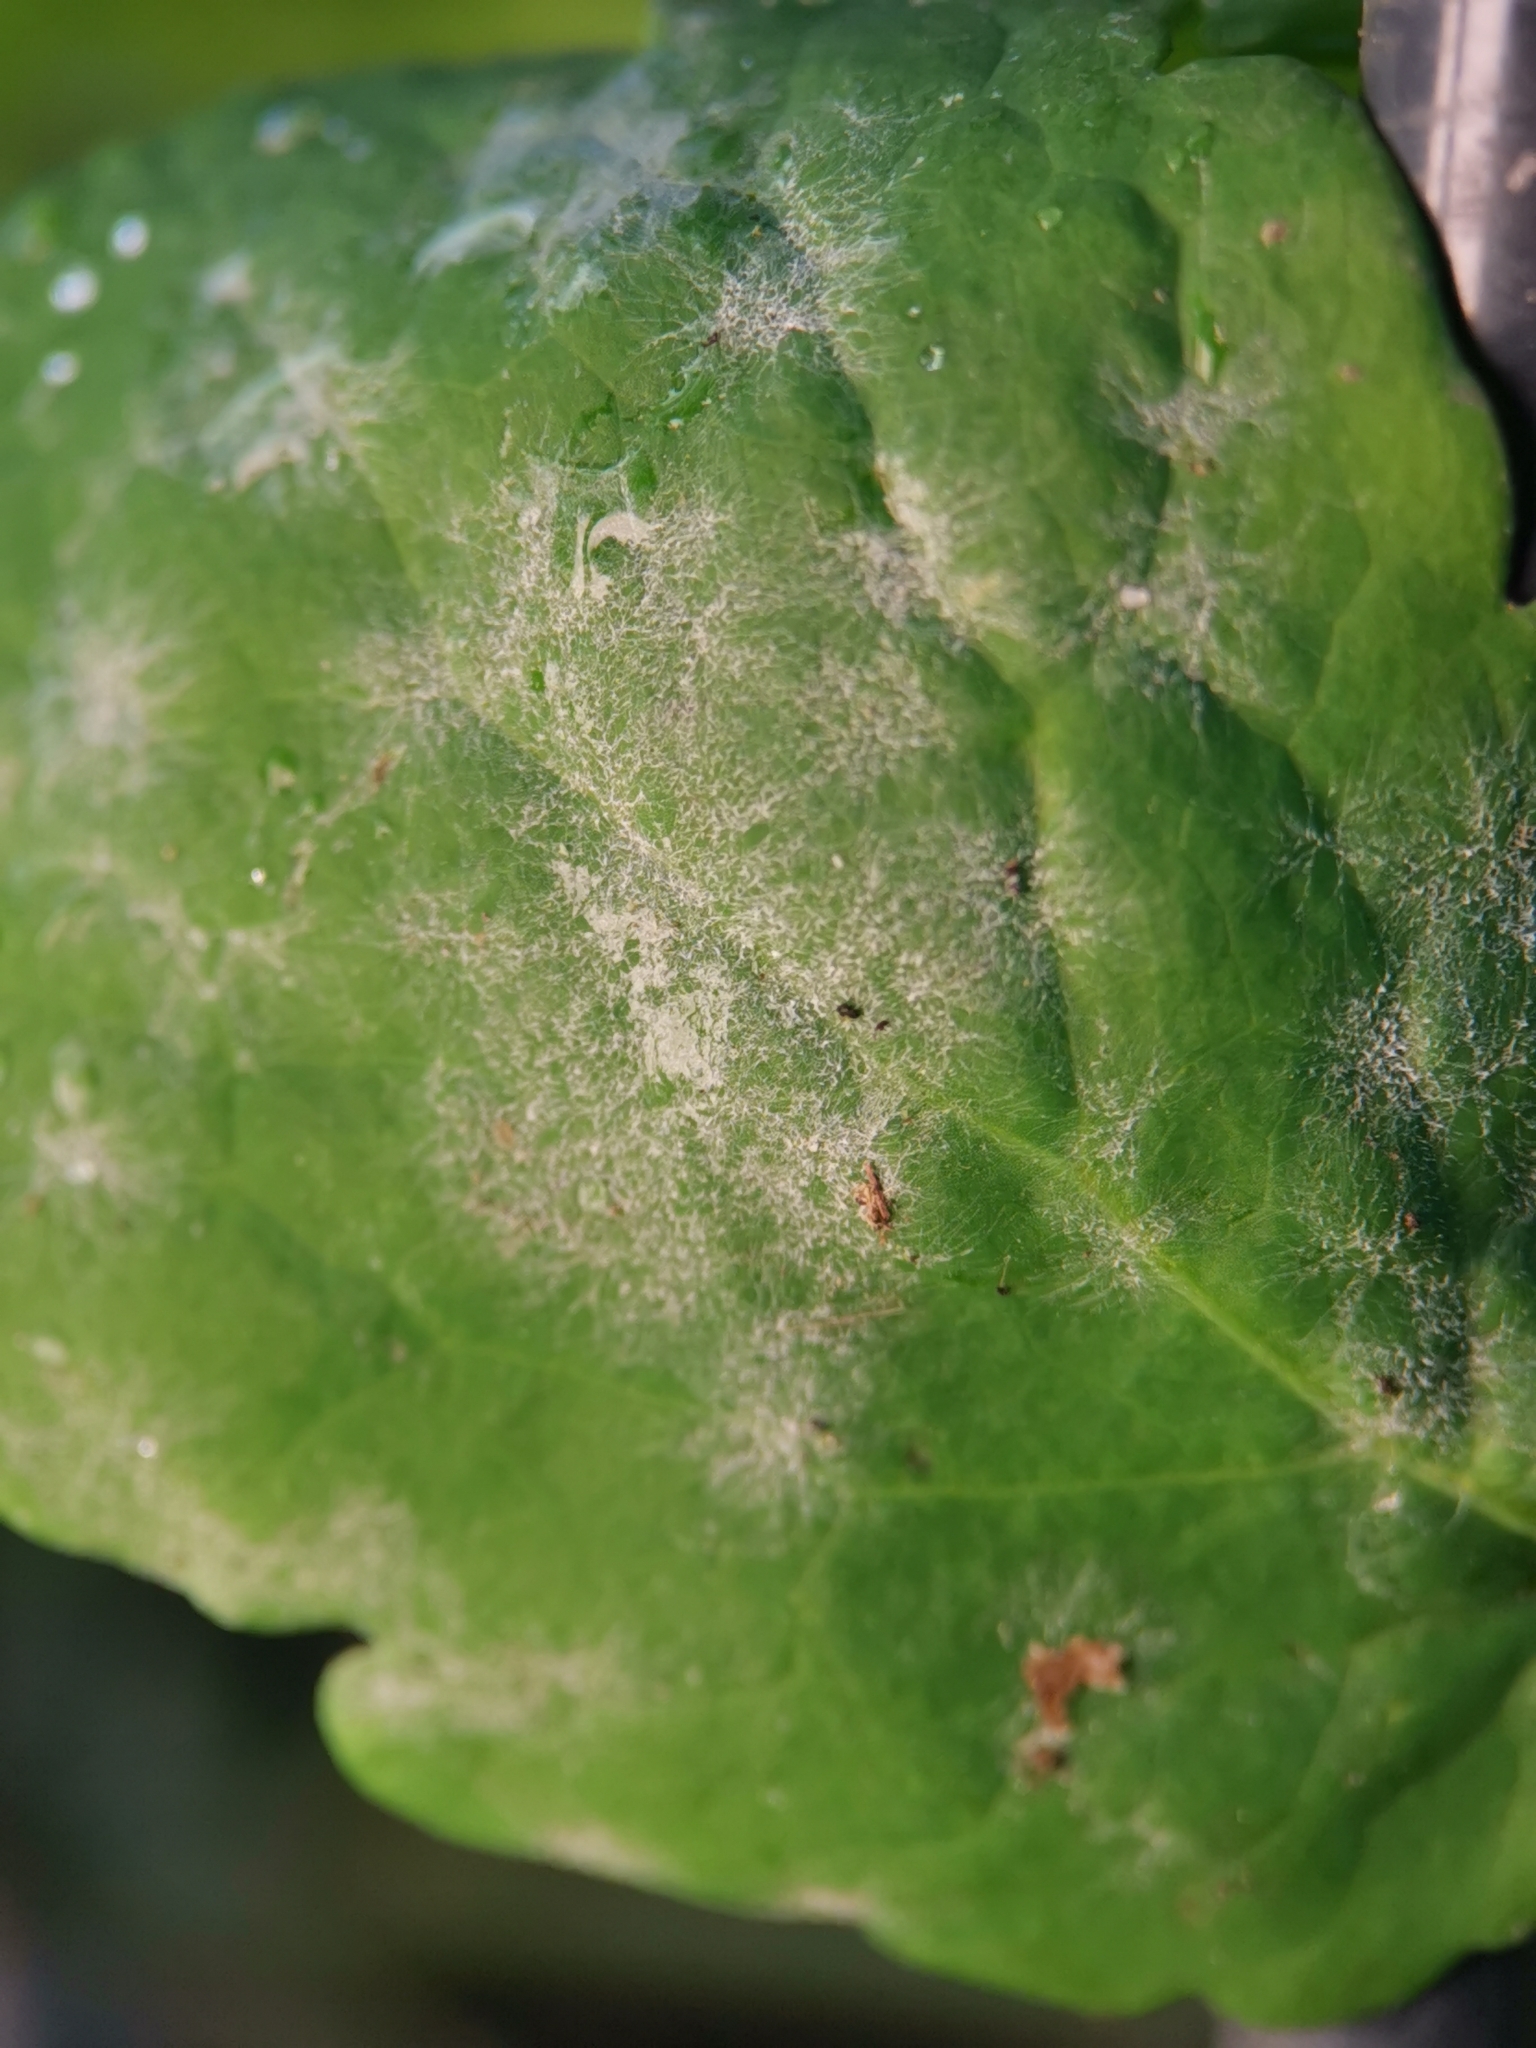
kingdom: Fungi
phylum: Ascomycota
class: Leotiomycetes
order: Helotiales
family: Erysiphaceae
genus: Erysiphe
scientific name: Erysiphe macleayae
